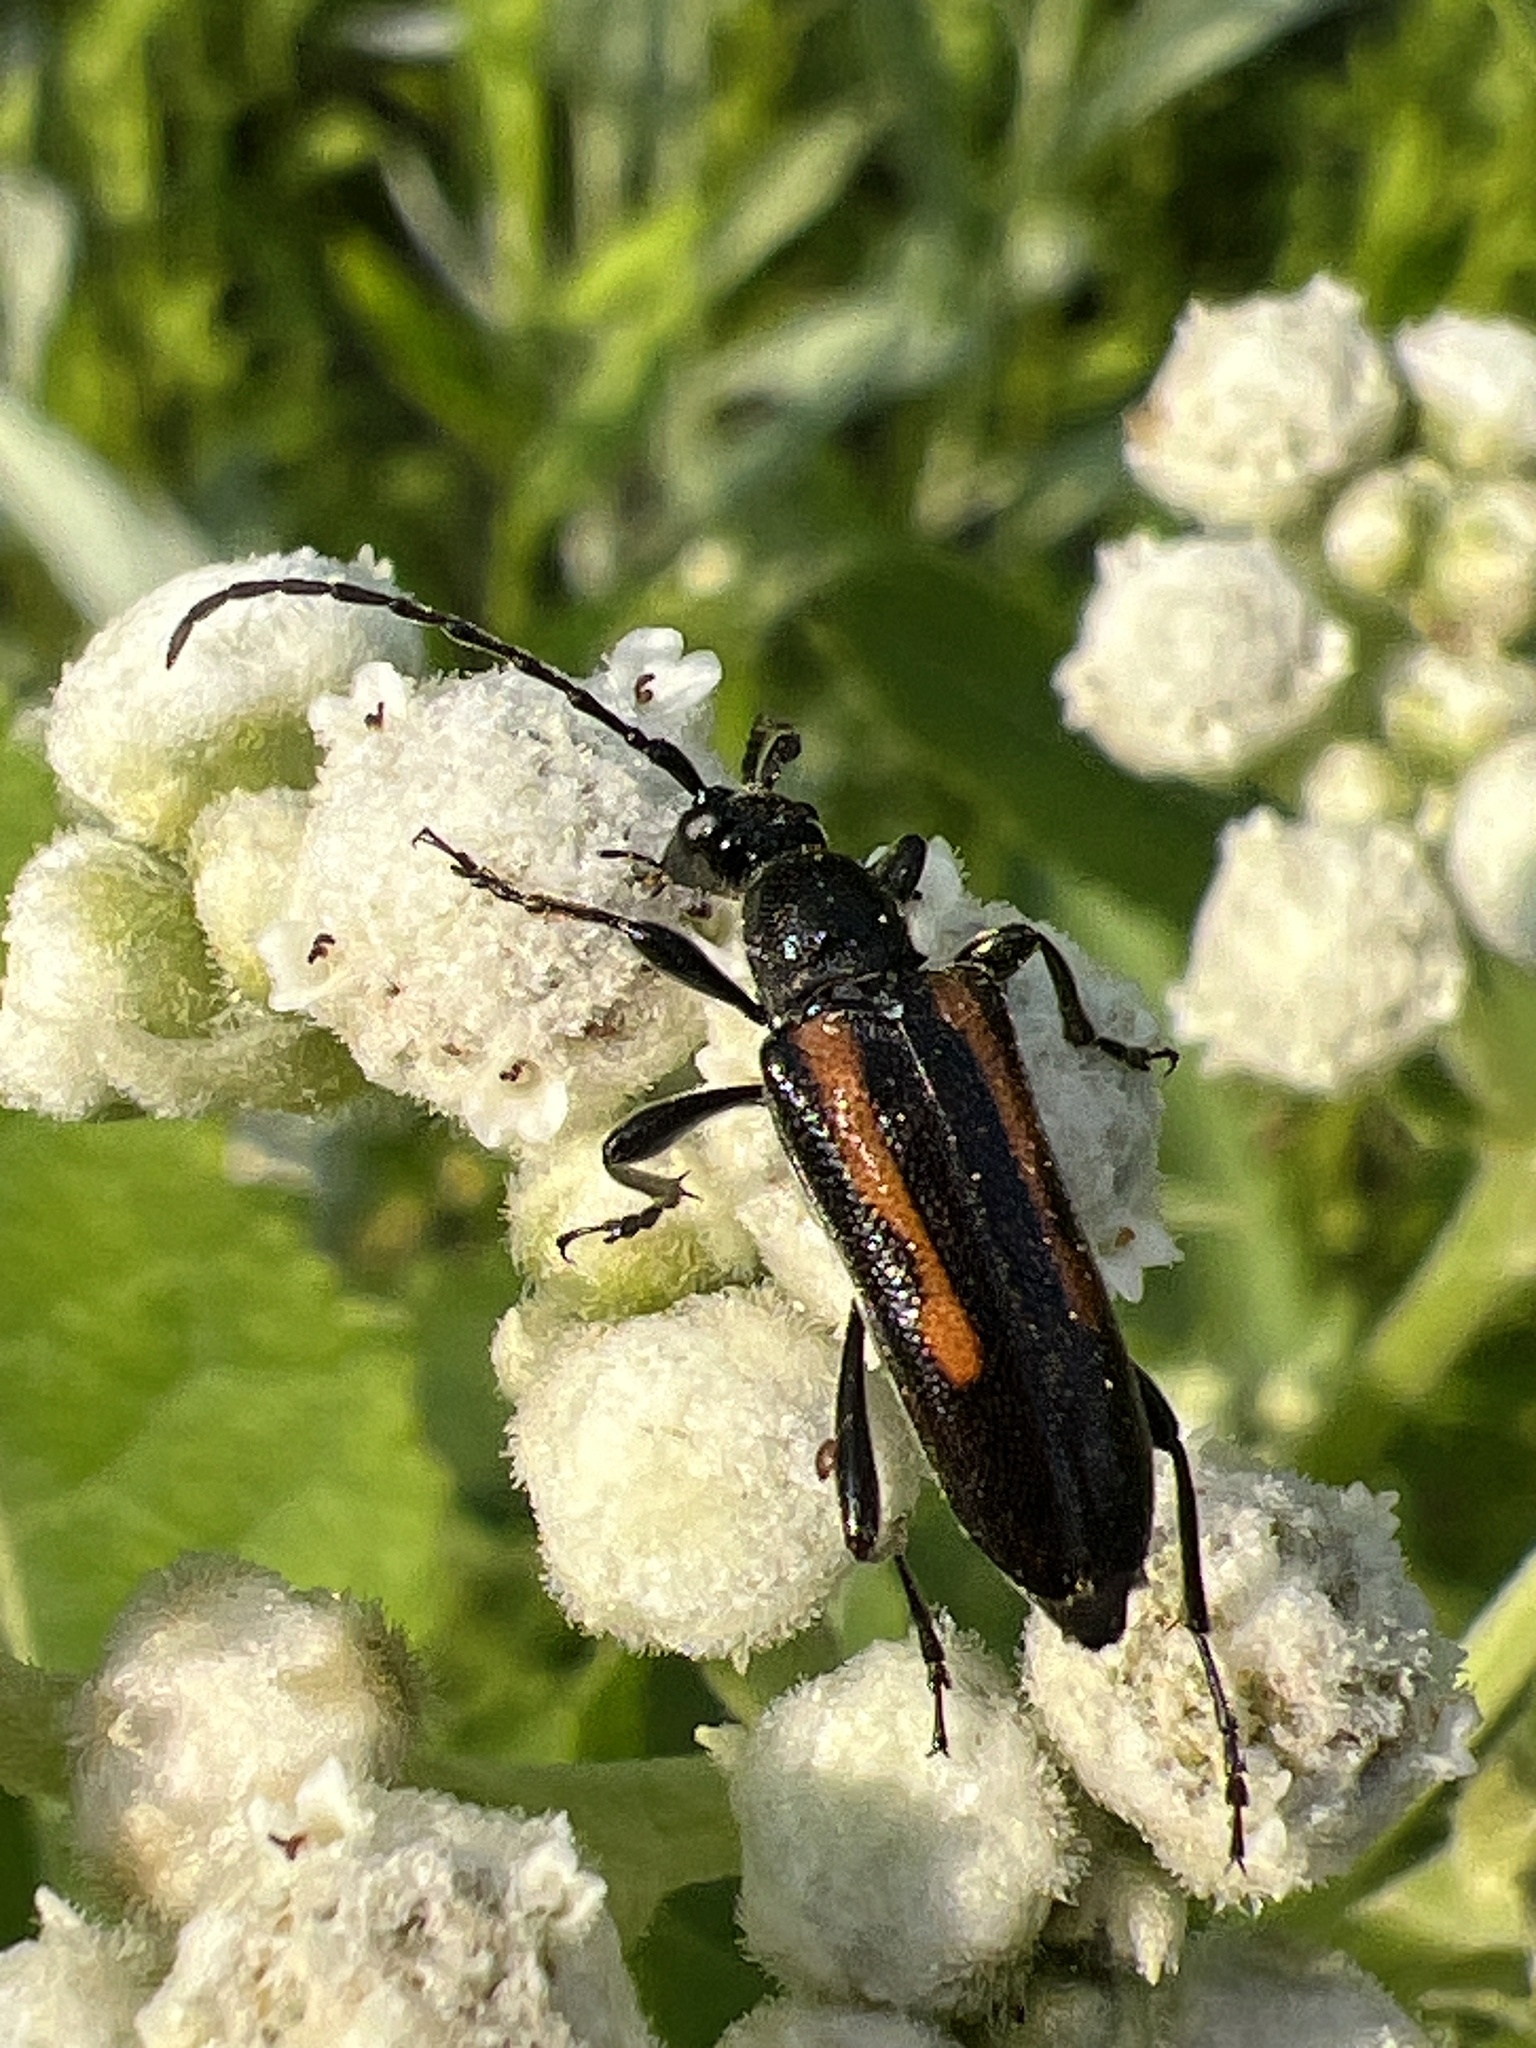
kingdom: Animalia
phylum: Arthropoda
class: Insecta
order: Coleoptera
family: Cerambycidae
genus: Strangalepta
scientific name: Strangalepta abbreviata
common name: Strangalepta flower longhorn beetle
